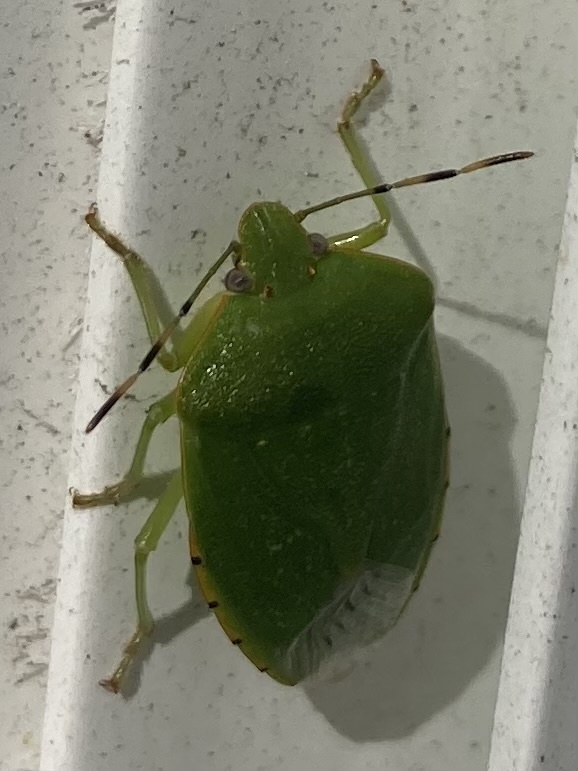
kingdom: Animalia
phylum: Arthropoda
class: Insecta
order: Hemiptera
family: Pentatomidae
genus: Chinavia
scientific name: Chinavia hilaris
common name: Green stink bug
